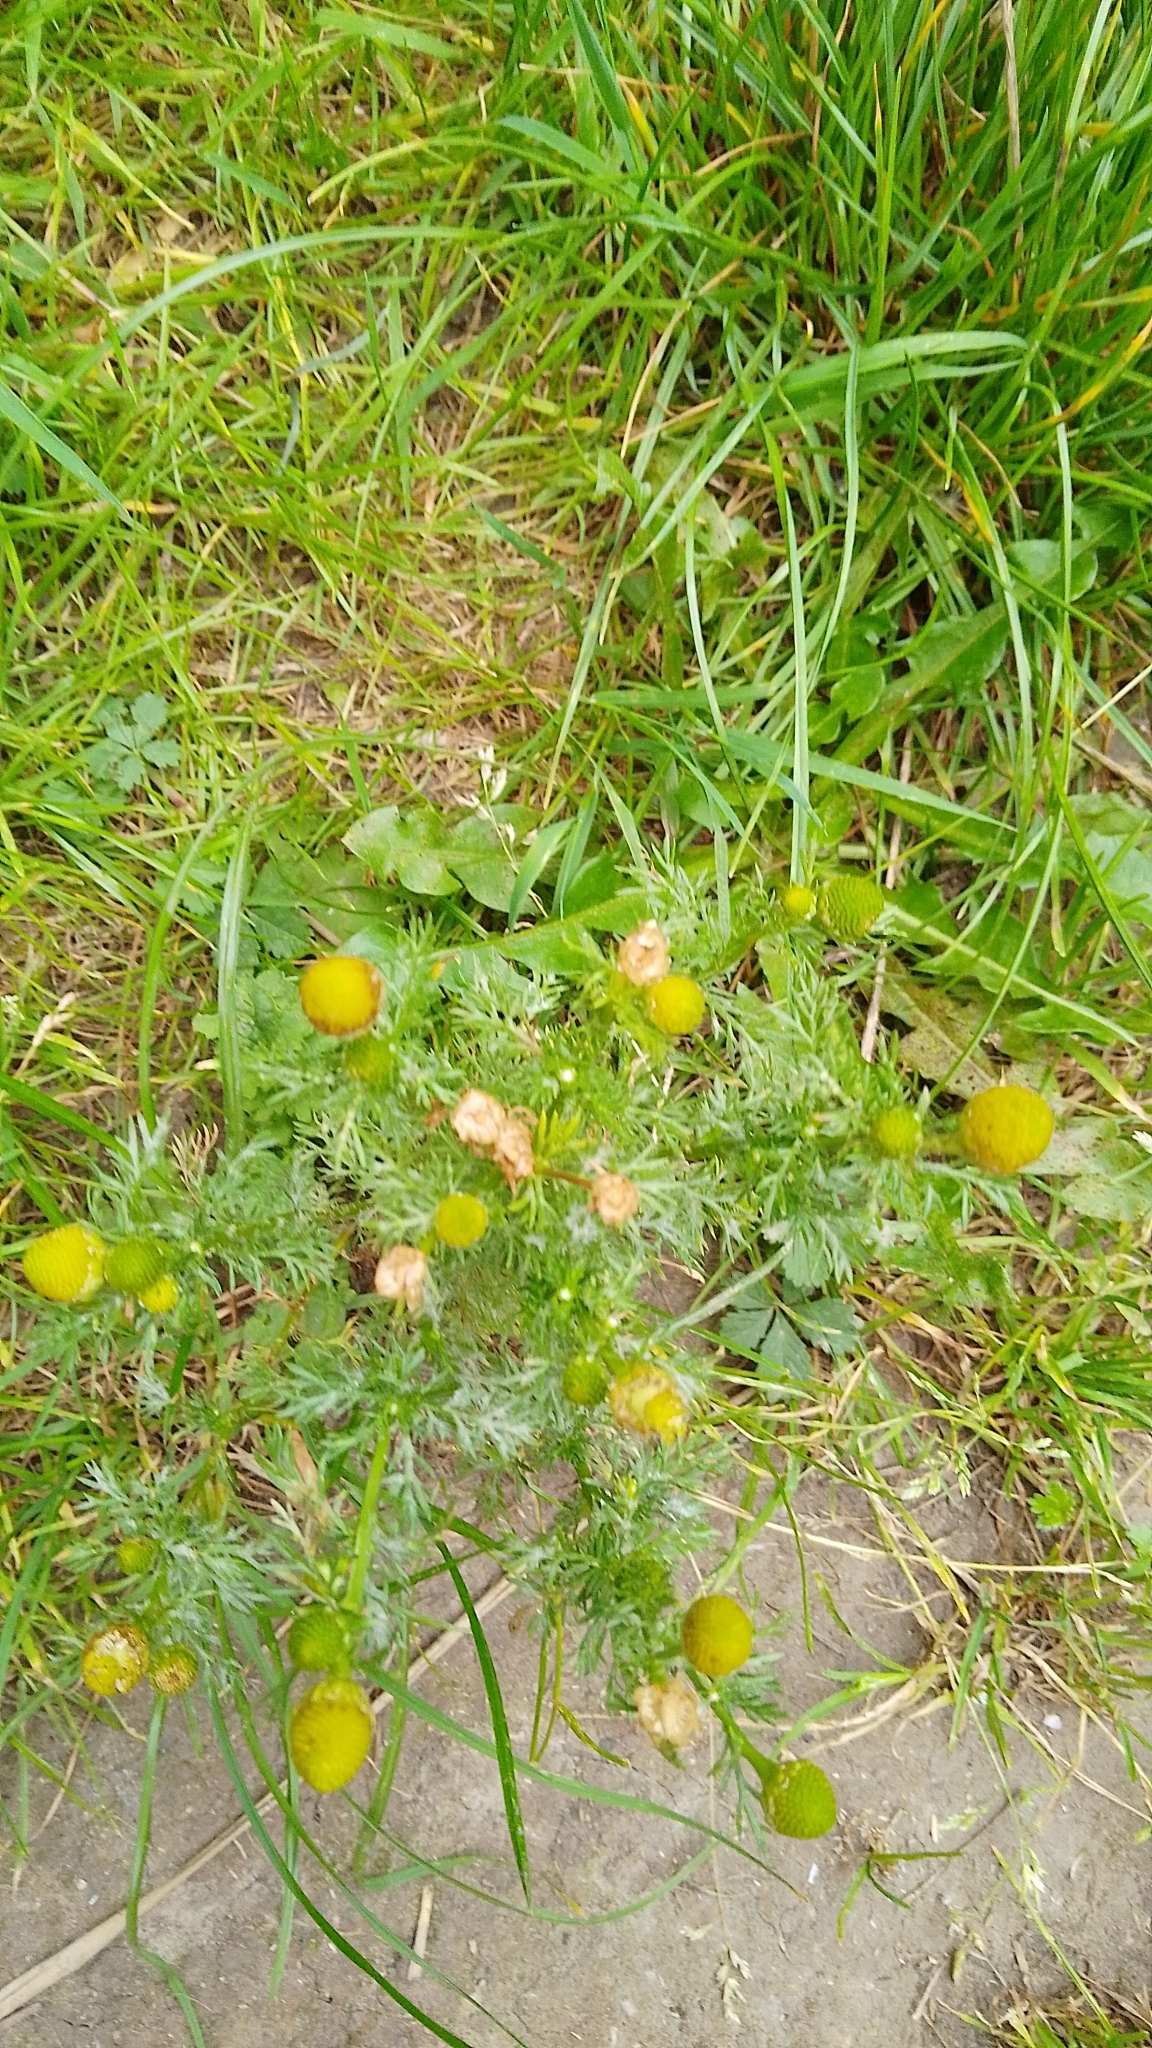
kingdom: Plantae
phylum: Tracheophyta
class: Magnoliopsida
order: Asterales
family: Asteraceae
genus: Matricaria
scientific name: Matricaria discoidea
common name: Disc mayweed
